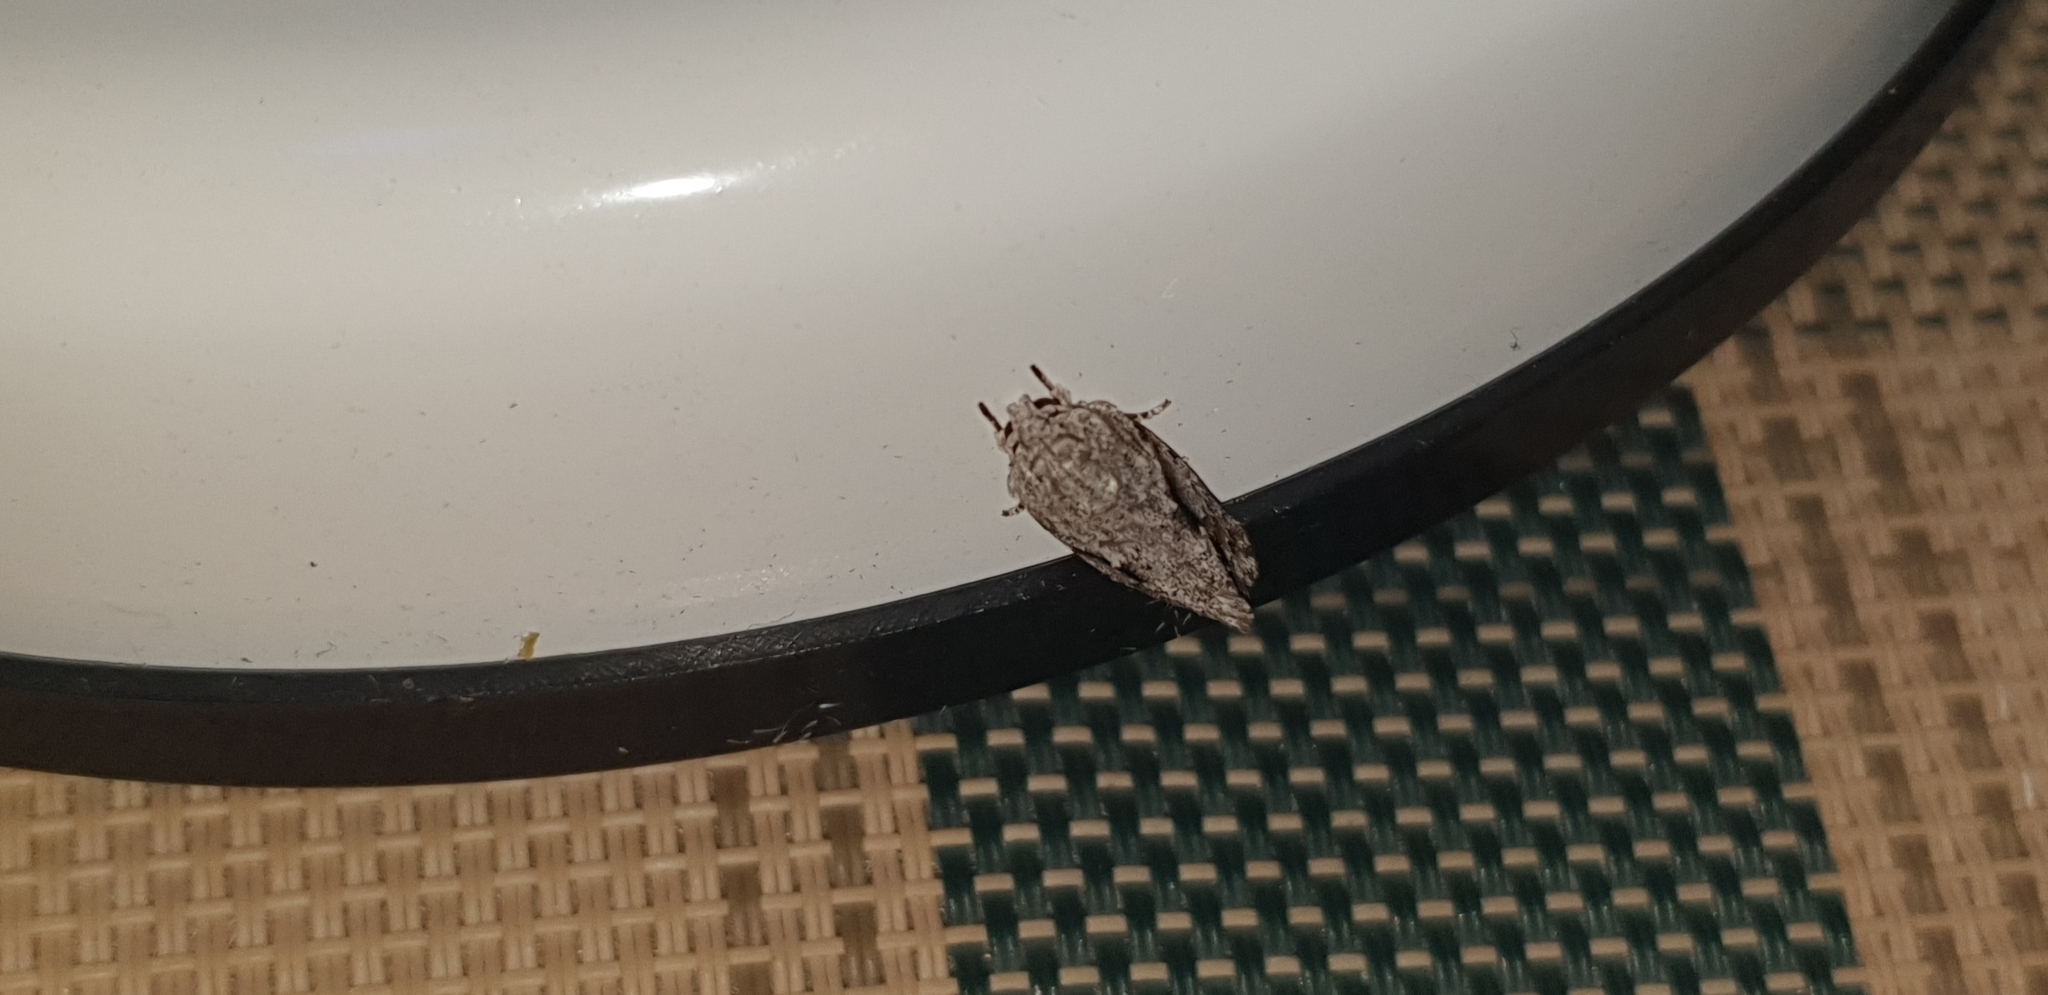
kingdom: Animalia
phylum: Arthropoda
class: Insecta
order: Lepidoptera
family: Depressariidae
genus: Agriophara
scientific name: Agriophara confertella
